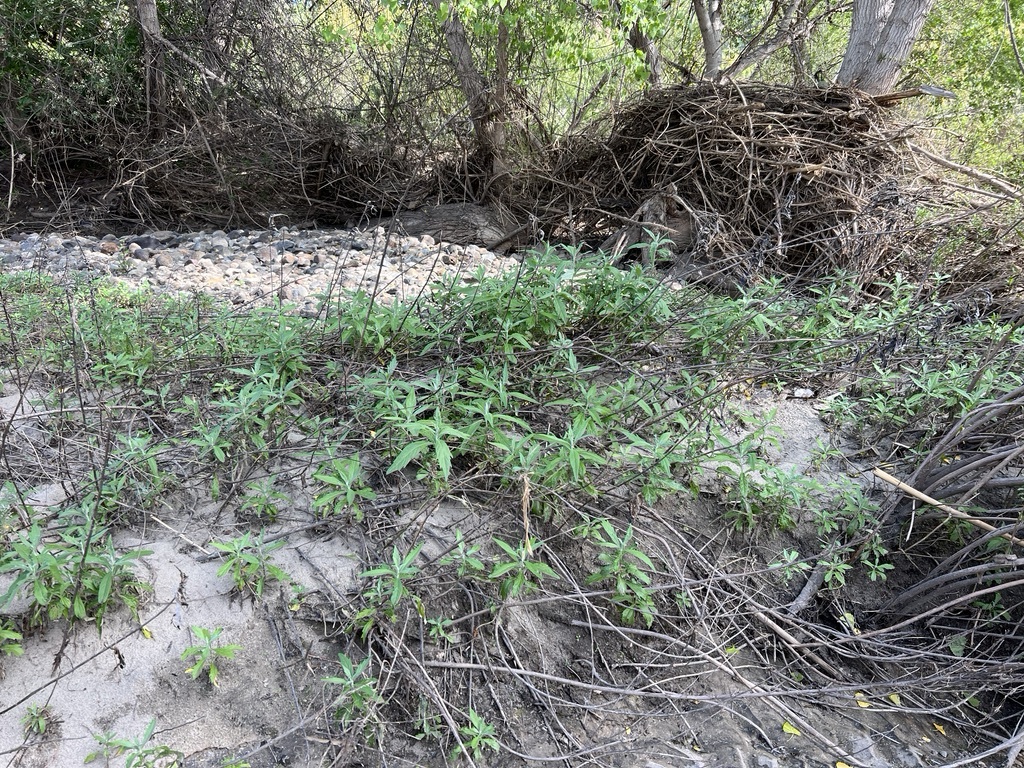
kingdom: Plantae
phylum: Tracheophyta
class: Magnoliopsida
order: Asterales
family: Asteraceae
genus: Artemisia
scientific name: Artemisia douglasiana
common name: Northwest mugwort
